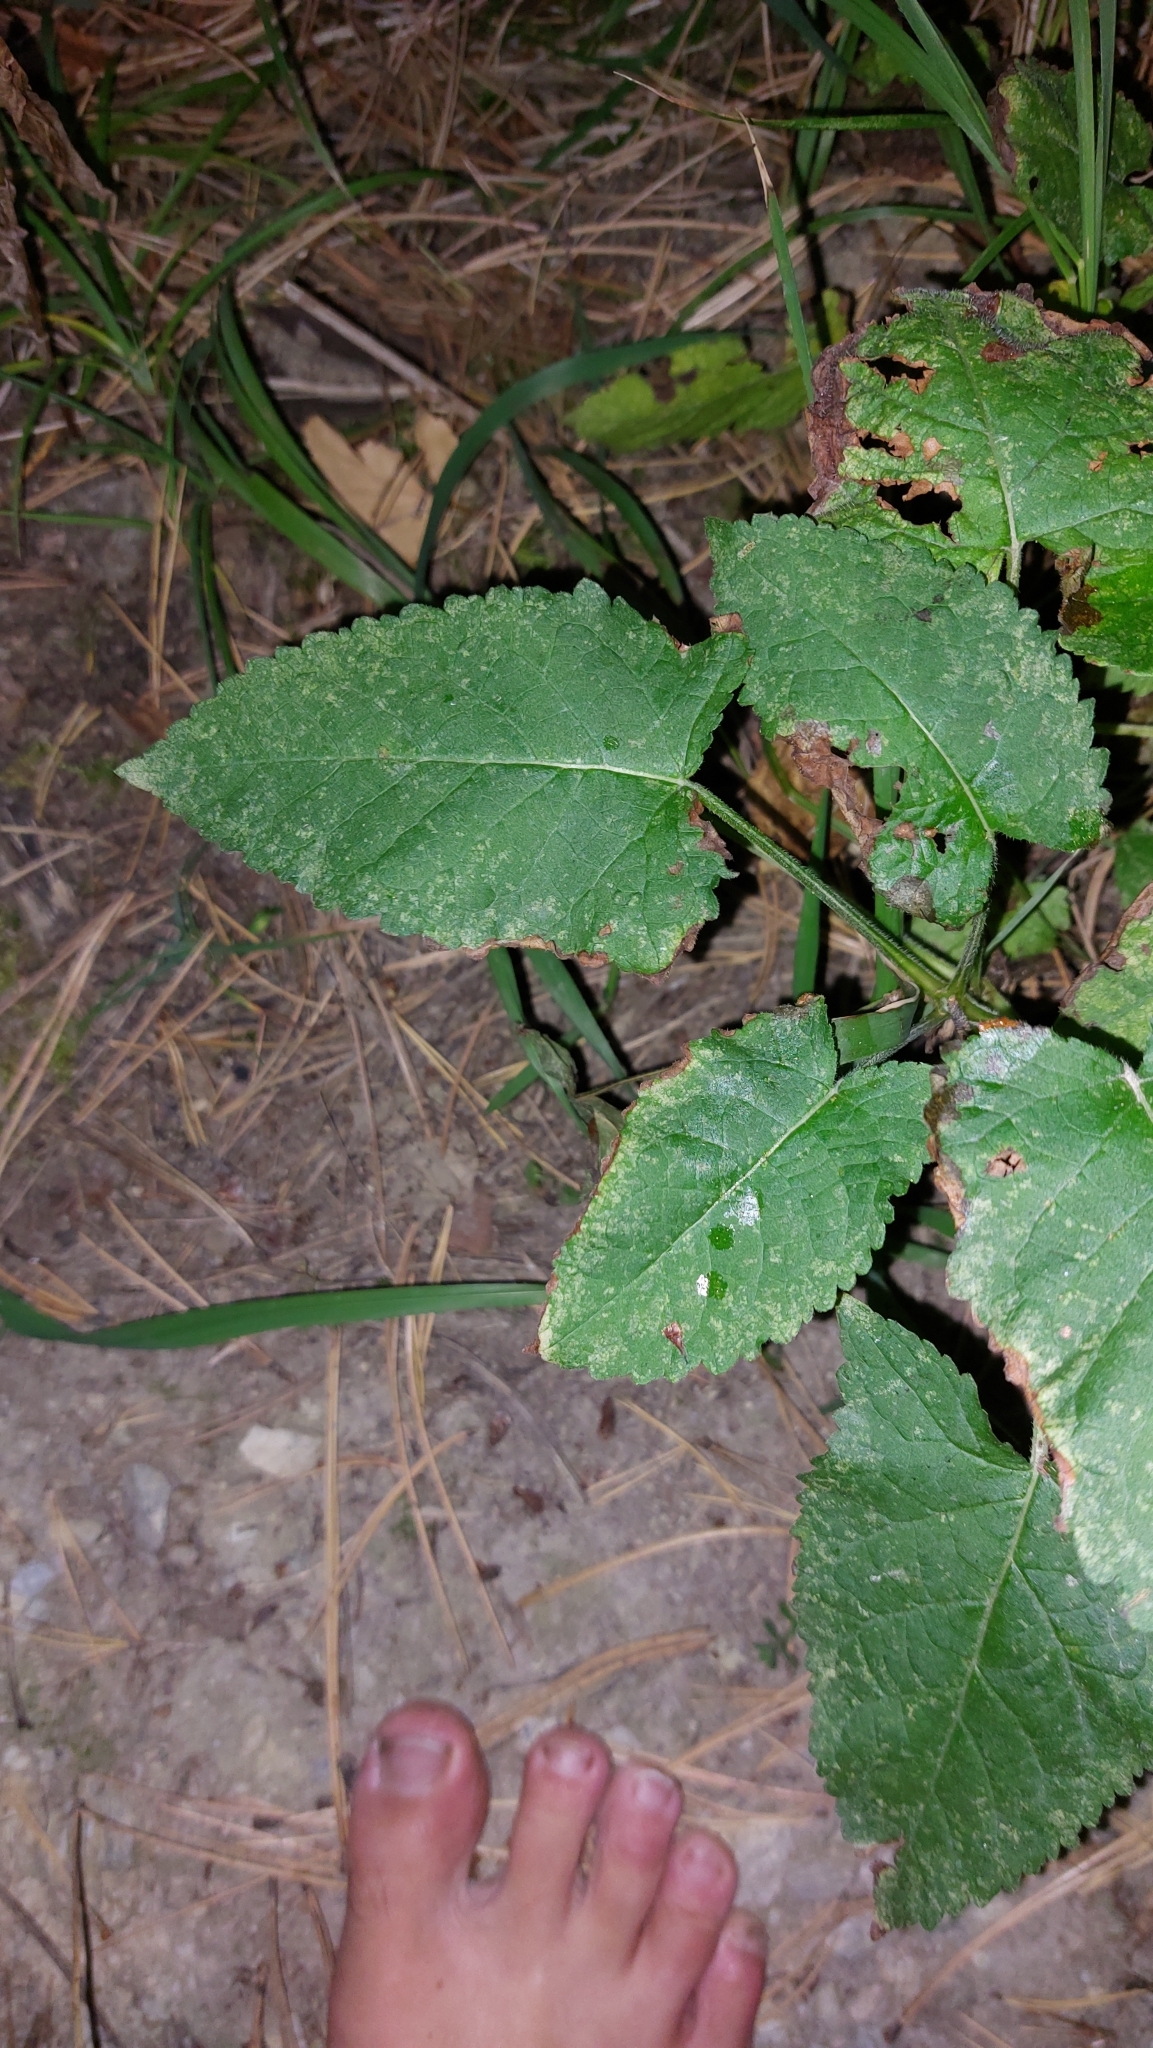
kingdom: Plantae
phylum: Tracheophyta
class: Magnoliopsida
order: Lamiales
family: Lamiaceae
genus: Salvia
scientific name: Salvia glutinosa
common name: Sticky clary
